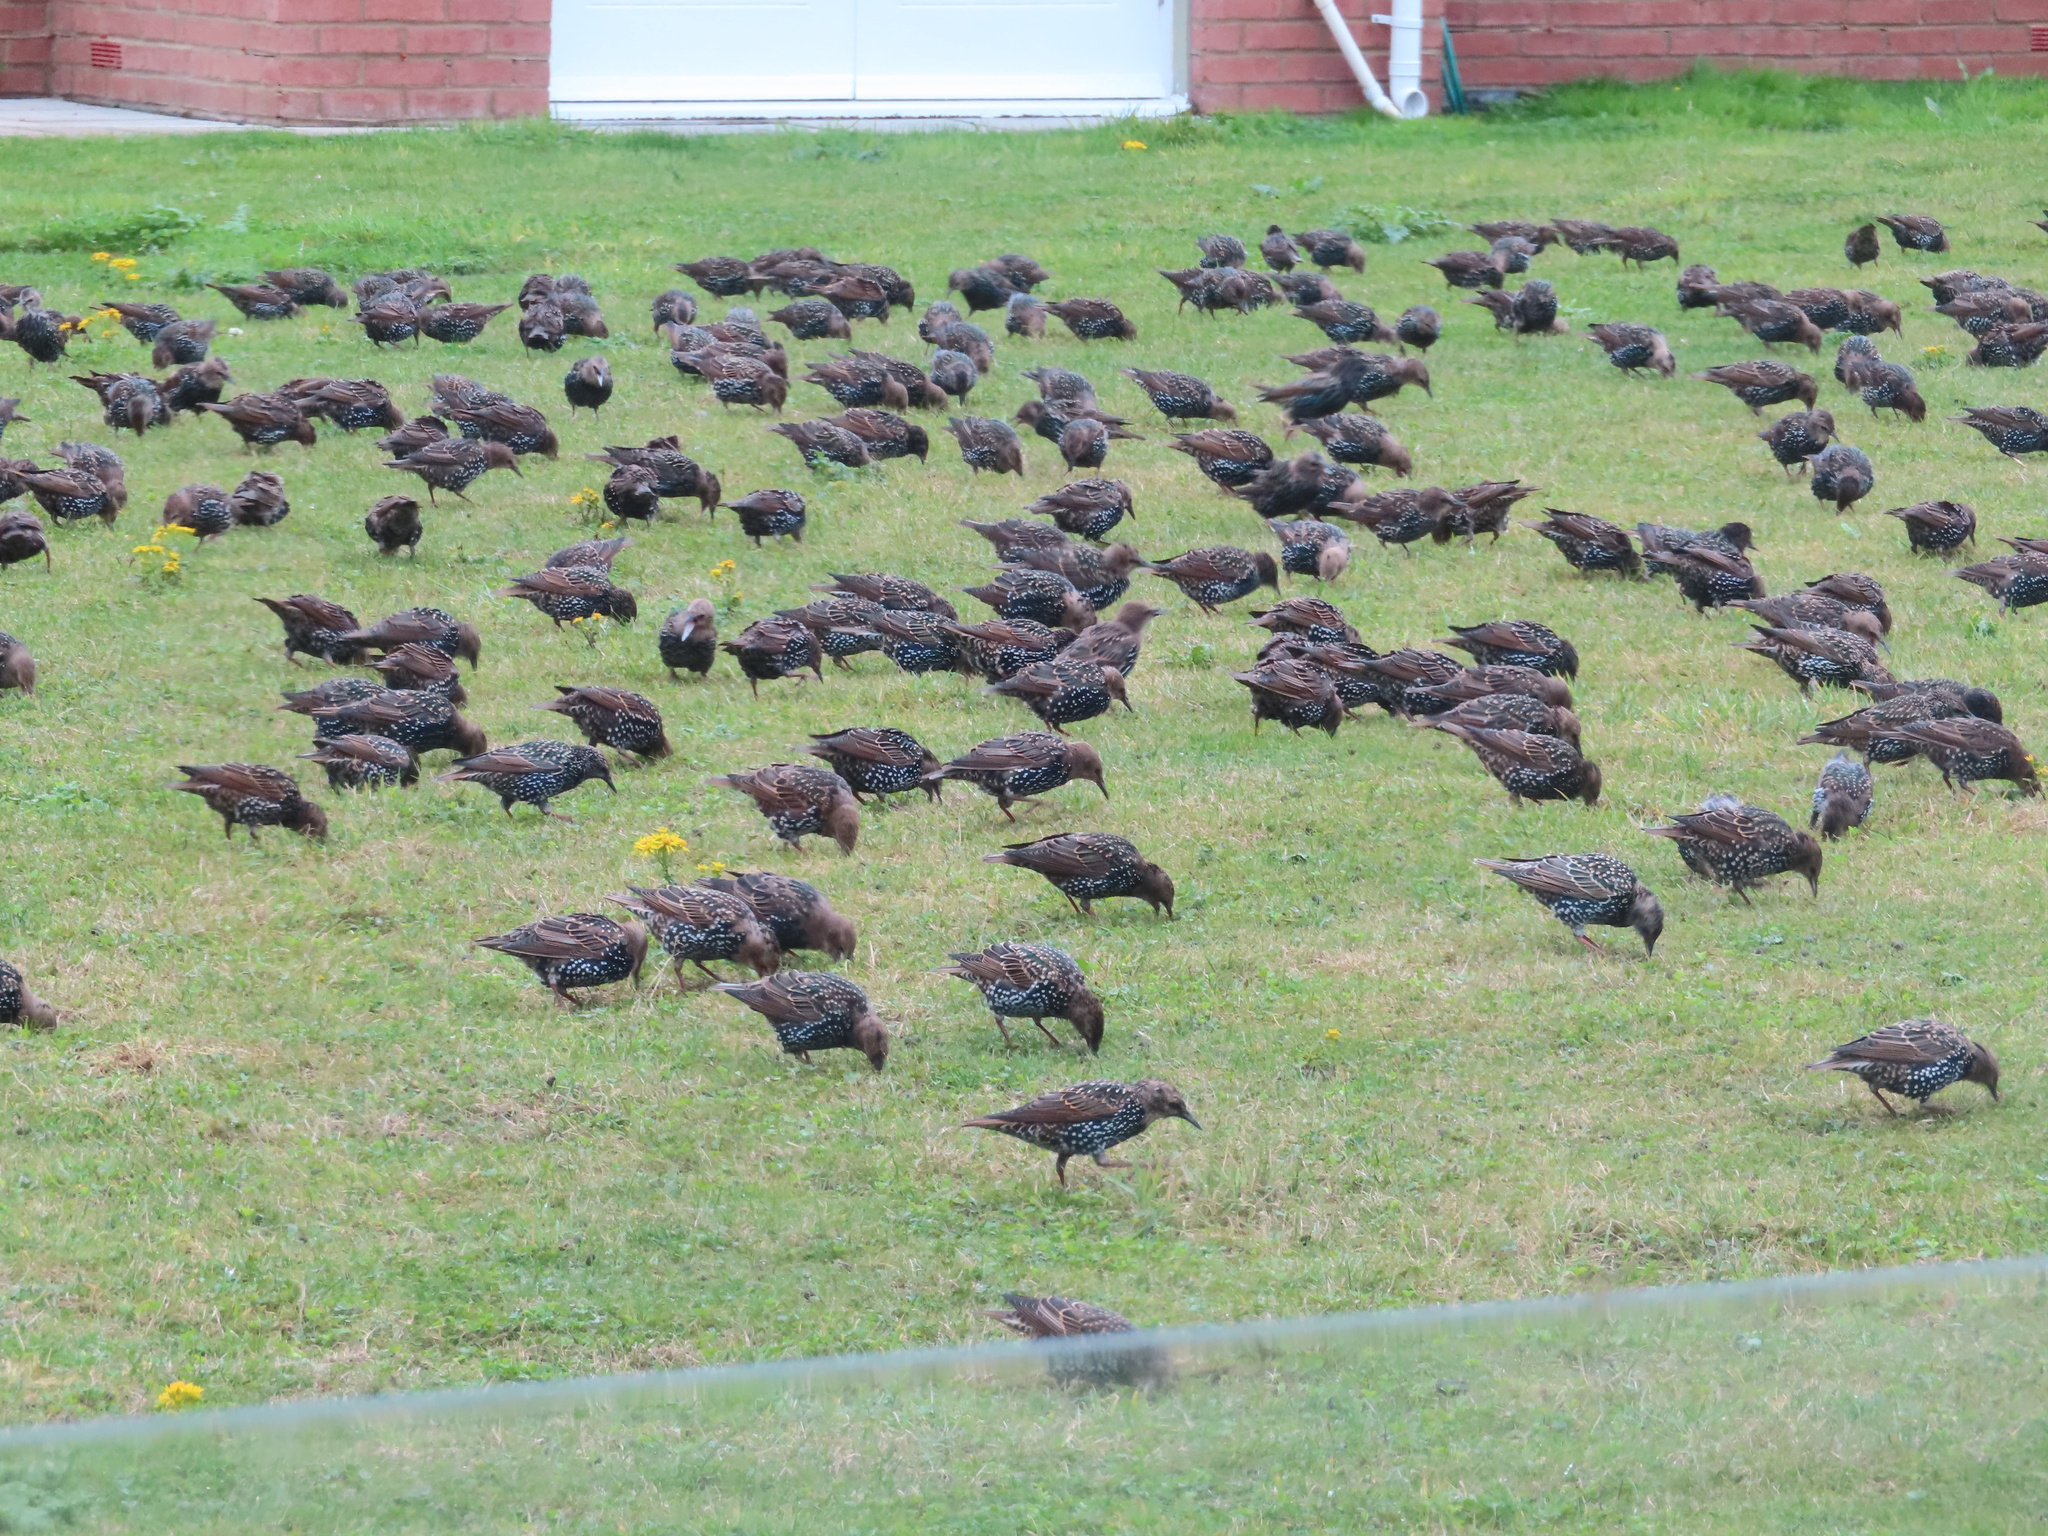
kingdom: Animalia
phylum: Chordata
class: Aves
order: Passeriformes
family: Sturnidae
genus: Sturnus
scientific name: Sturnus vulgaris
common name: Common starling
